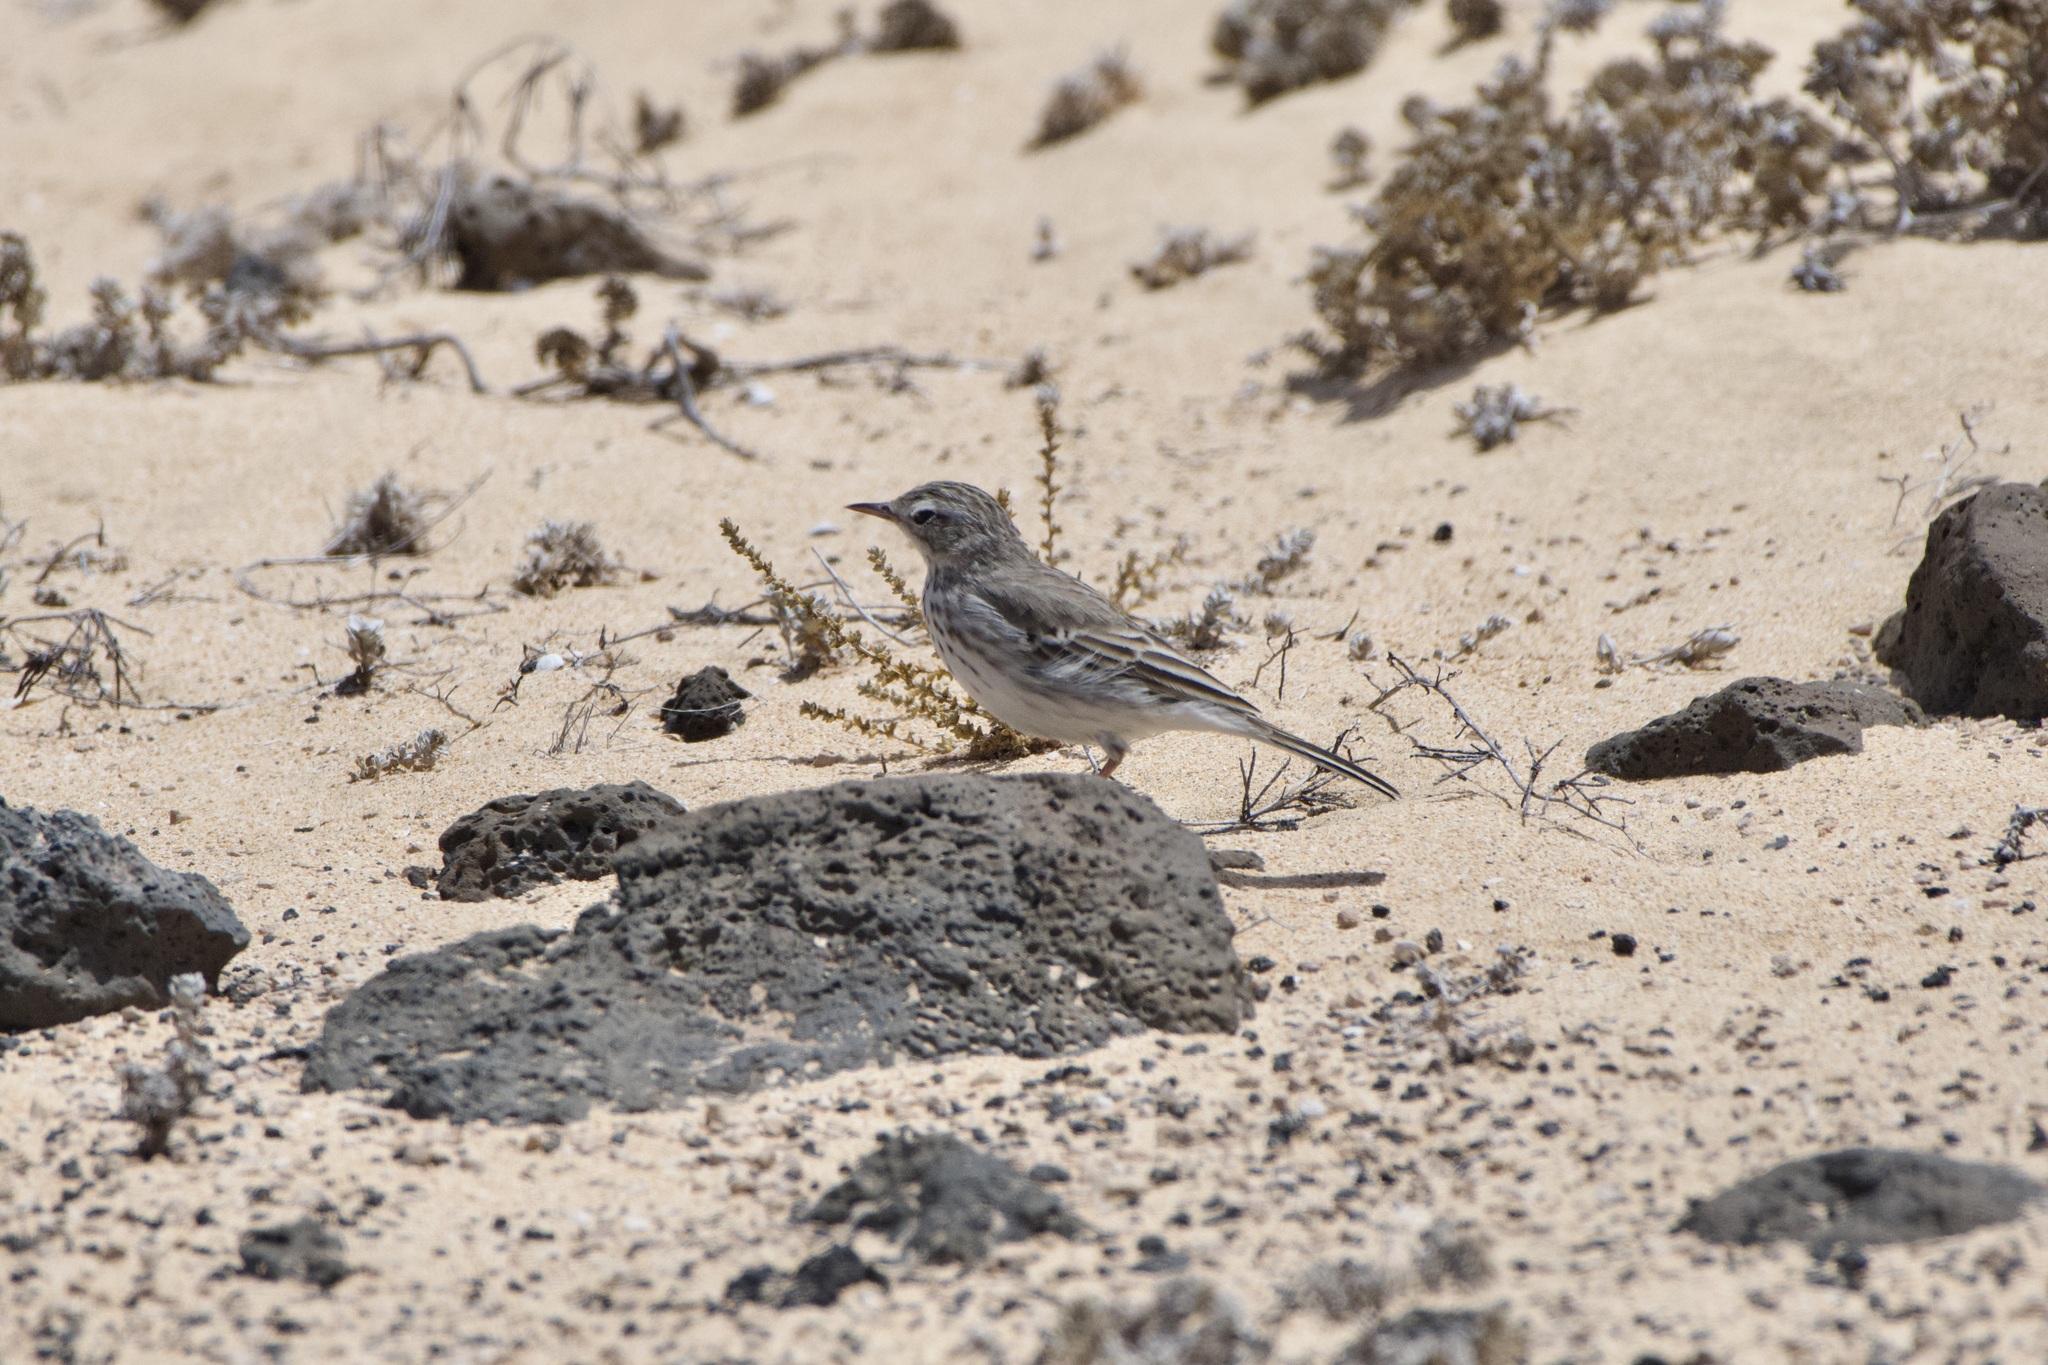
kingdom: Animalia
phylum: Chordata
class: Aves
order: Passeriformes
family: Motacillidae
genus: Anthus
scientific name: Anthus berthelotii
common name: Berthelot's pipit
